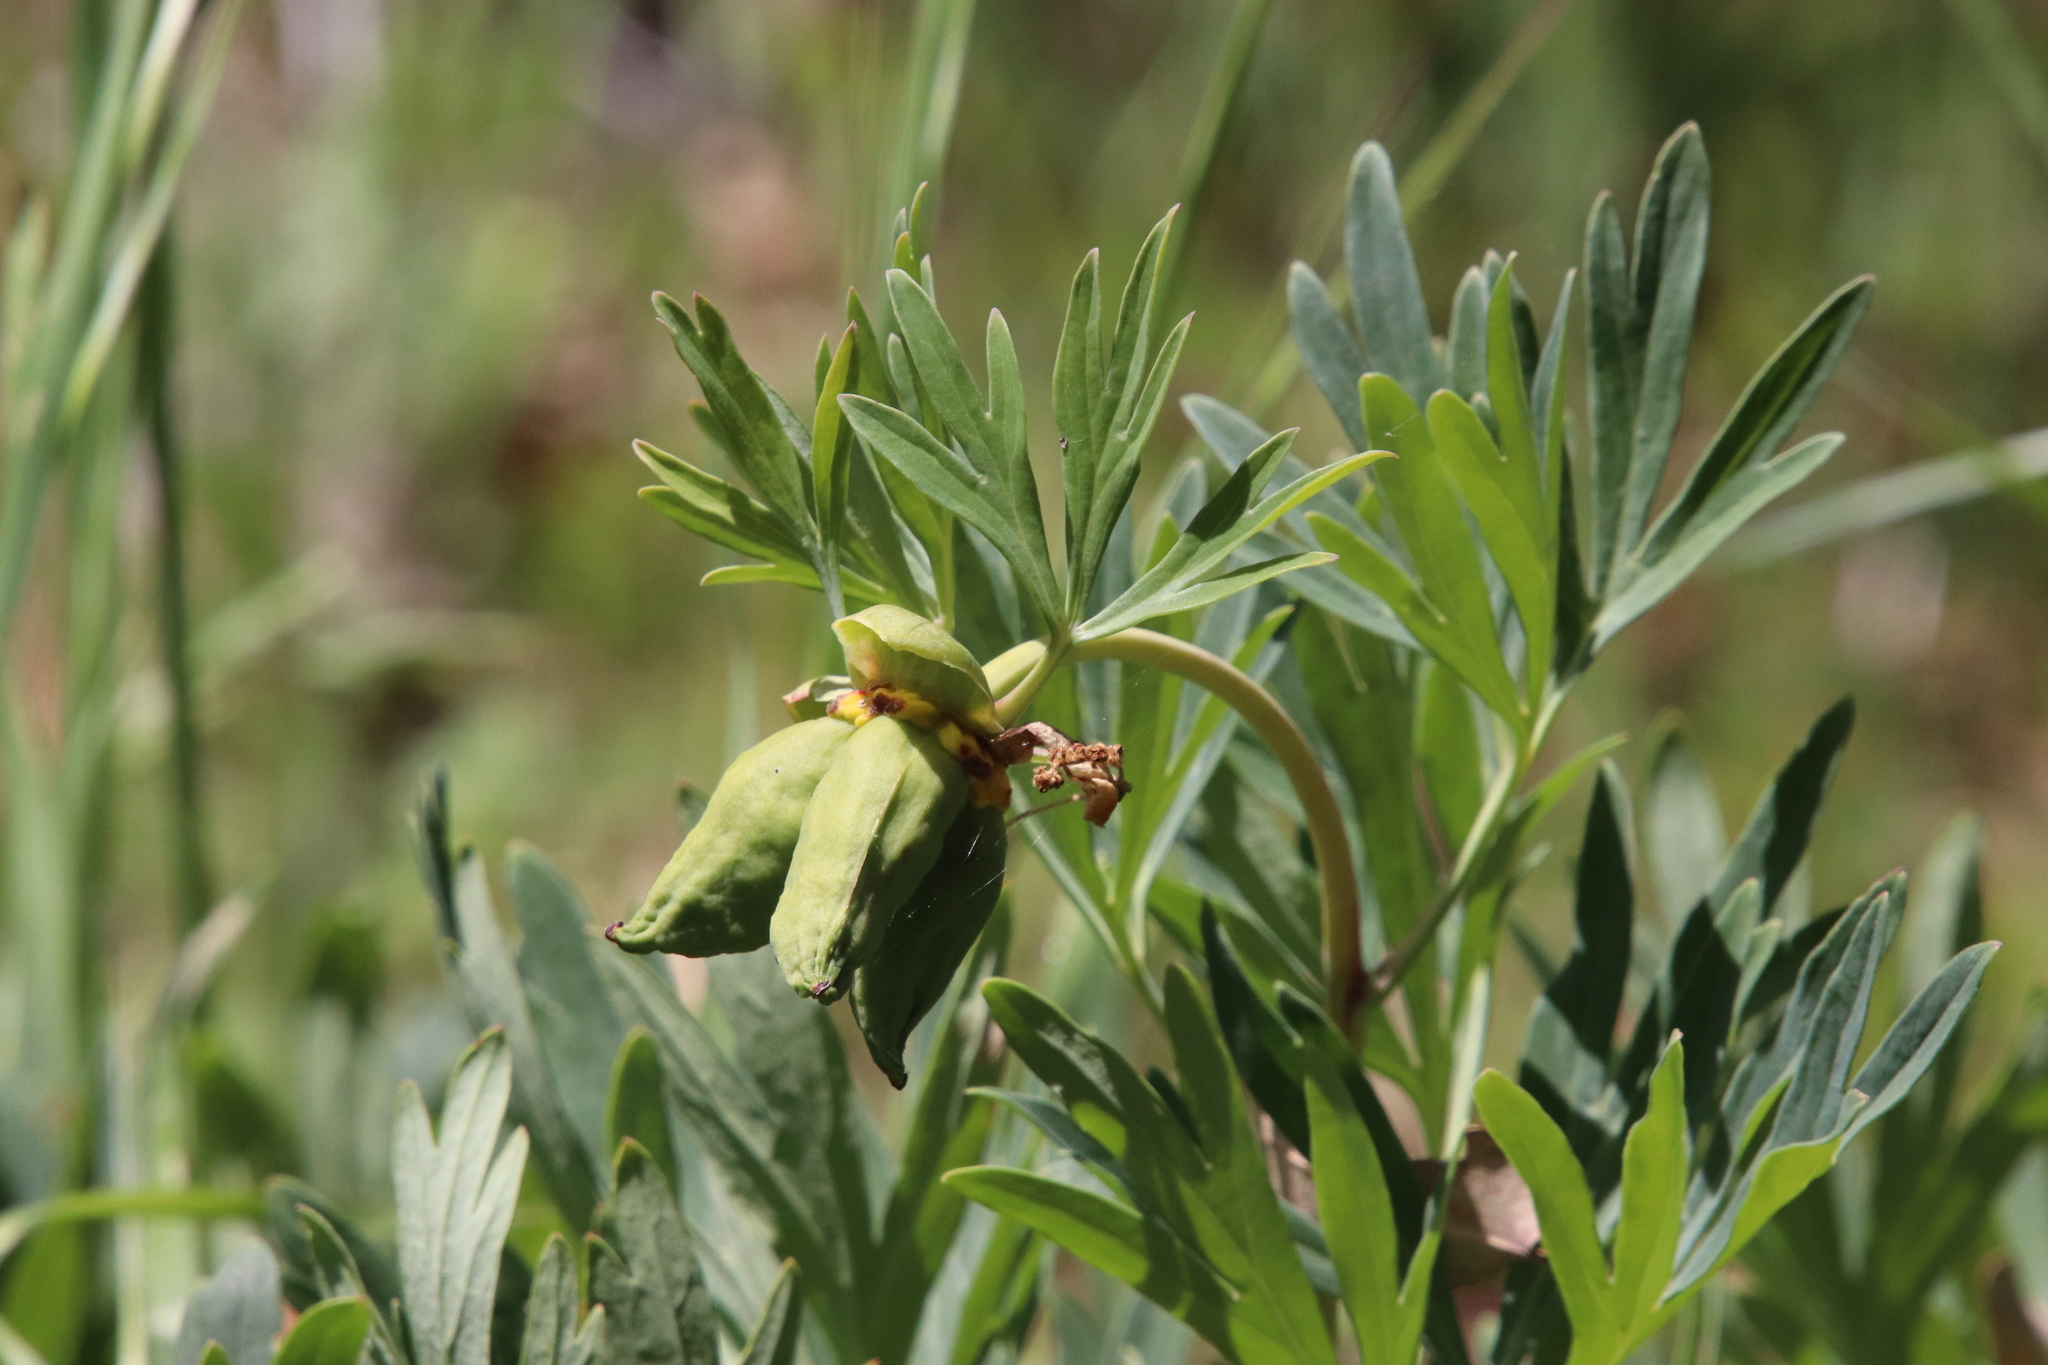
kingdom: Plantae
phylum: Tracheophyta
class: Magnoliopsida
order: Saxifragales
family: Paeoniaceae
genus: Paeonia
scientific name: Paeonia californica
